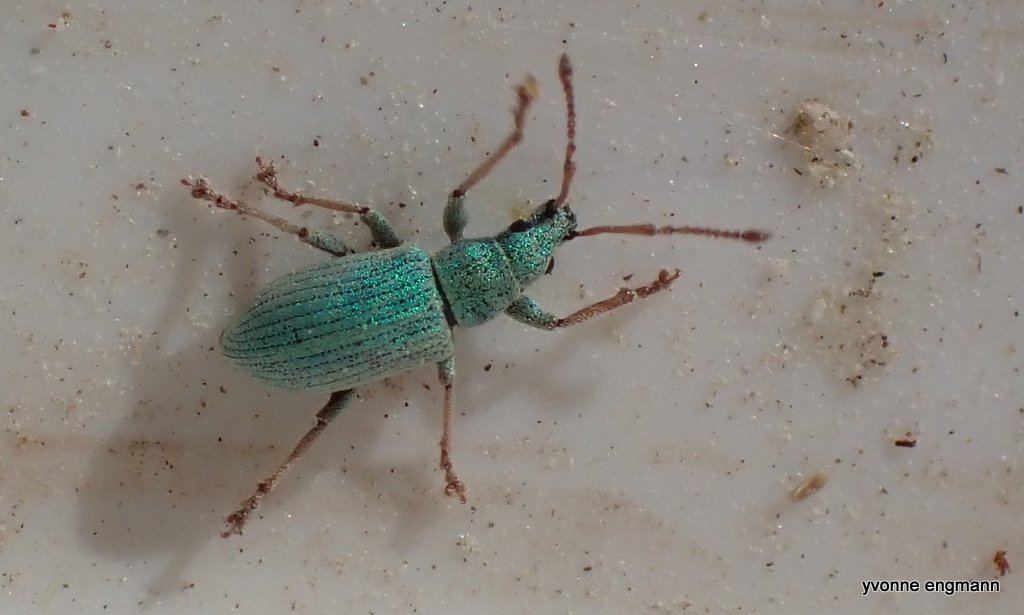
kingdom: Animalia
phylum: Arthropoda
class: Insecta
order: Coleoptera
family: Curculionidae
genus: Phyllobius
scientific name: Phyllobius maculicornis
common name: Green leaf weevil
